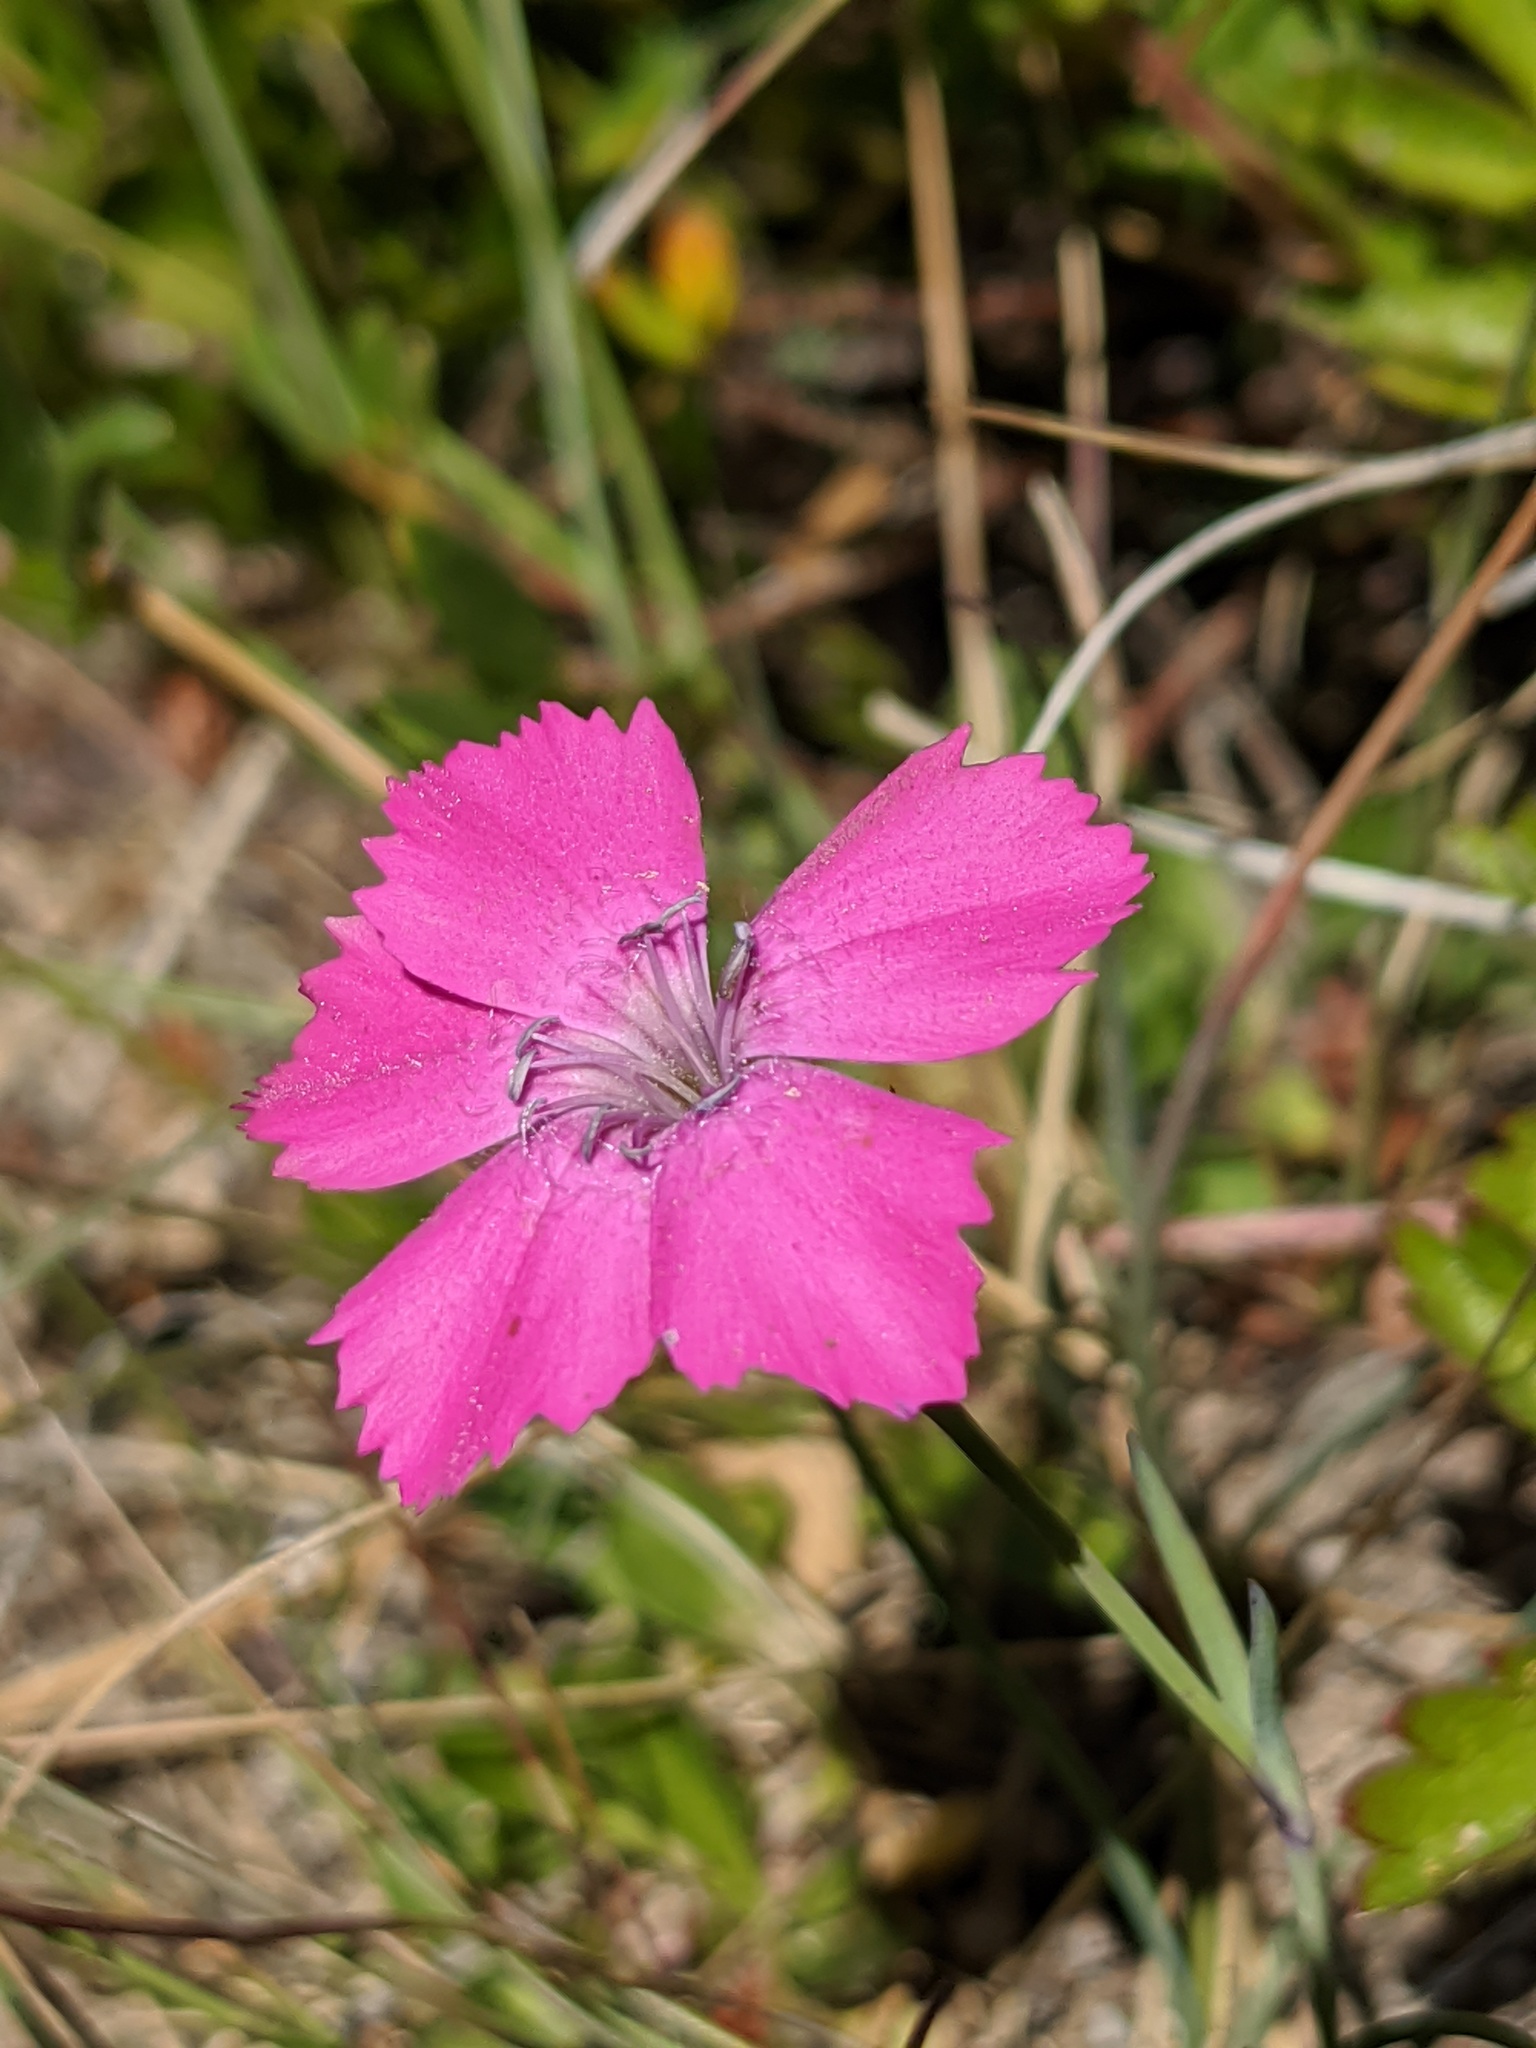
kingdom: Plantae
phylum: Tracheophyta
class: Magnoliopsida
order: Caryophyllales
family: Caryophyllaceae
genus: Dianthus
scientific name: Dianthus pavonius
